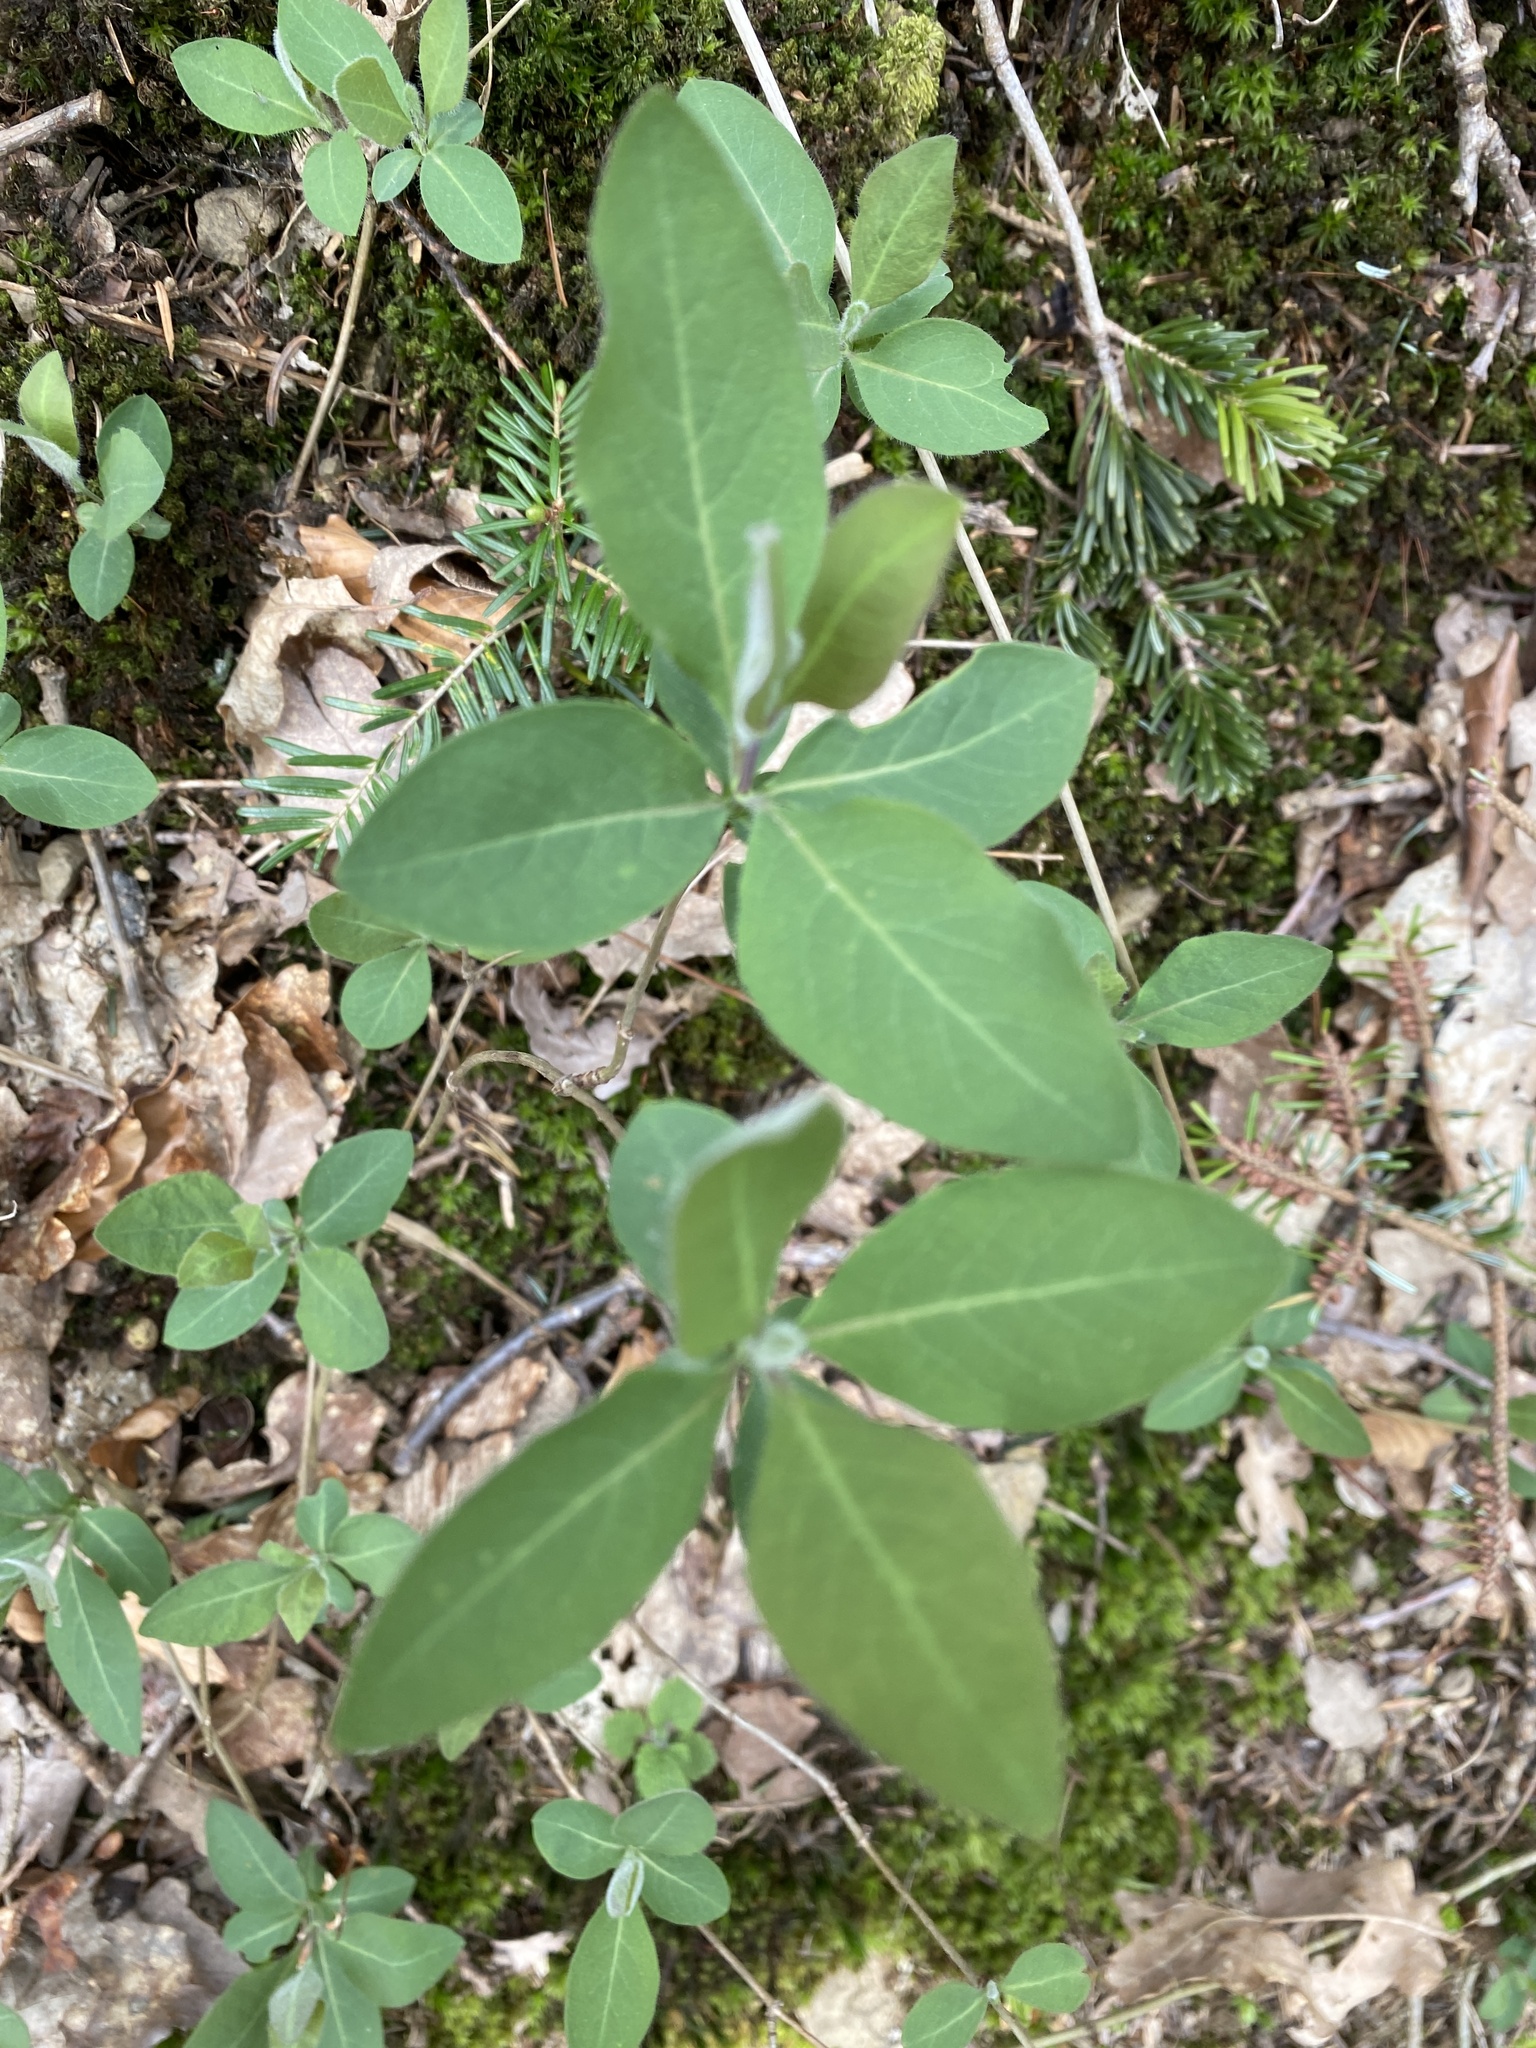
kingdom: Plantae
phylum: Tracheophyta
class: Magnoliopsida
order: Dipsacales
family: Caprifoliaceae
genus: Lonicera
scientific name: Lonicera periclymenum
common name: European honeysuckle
